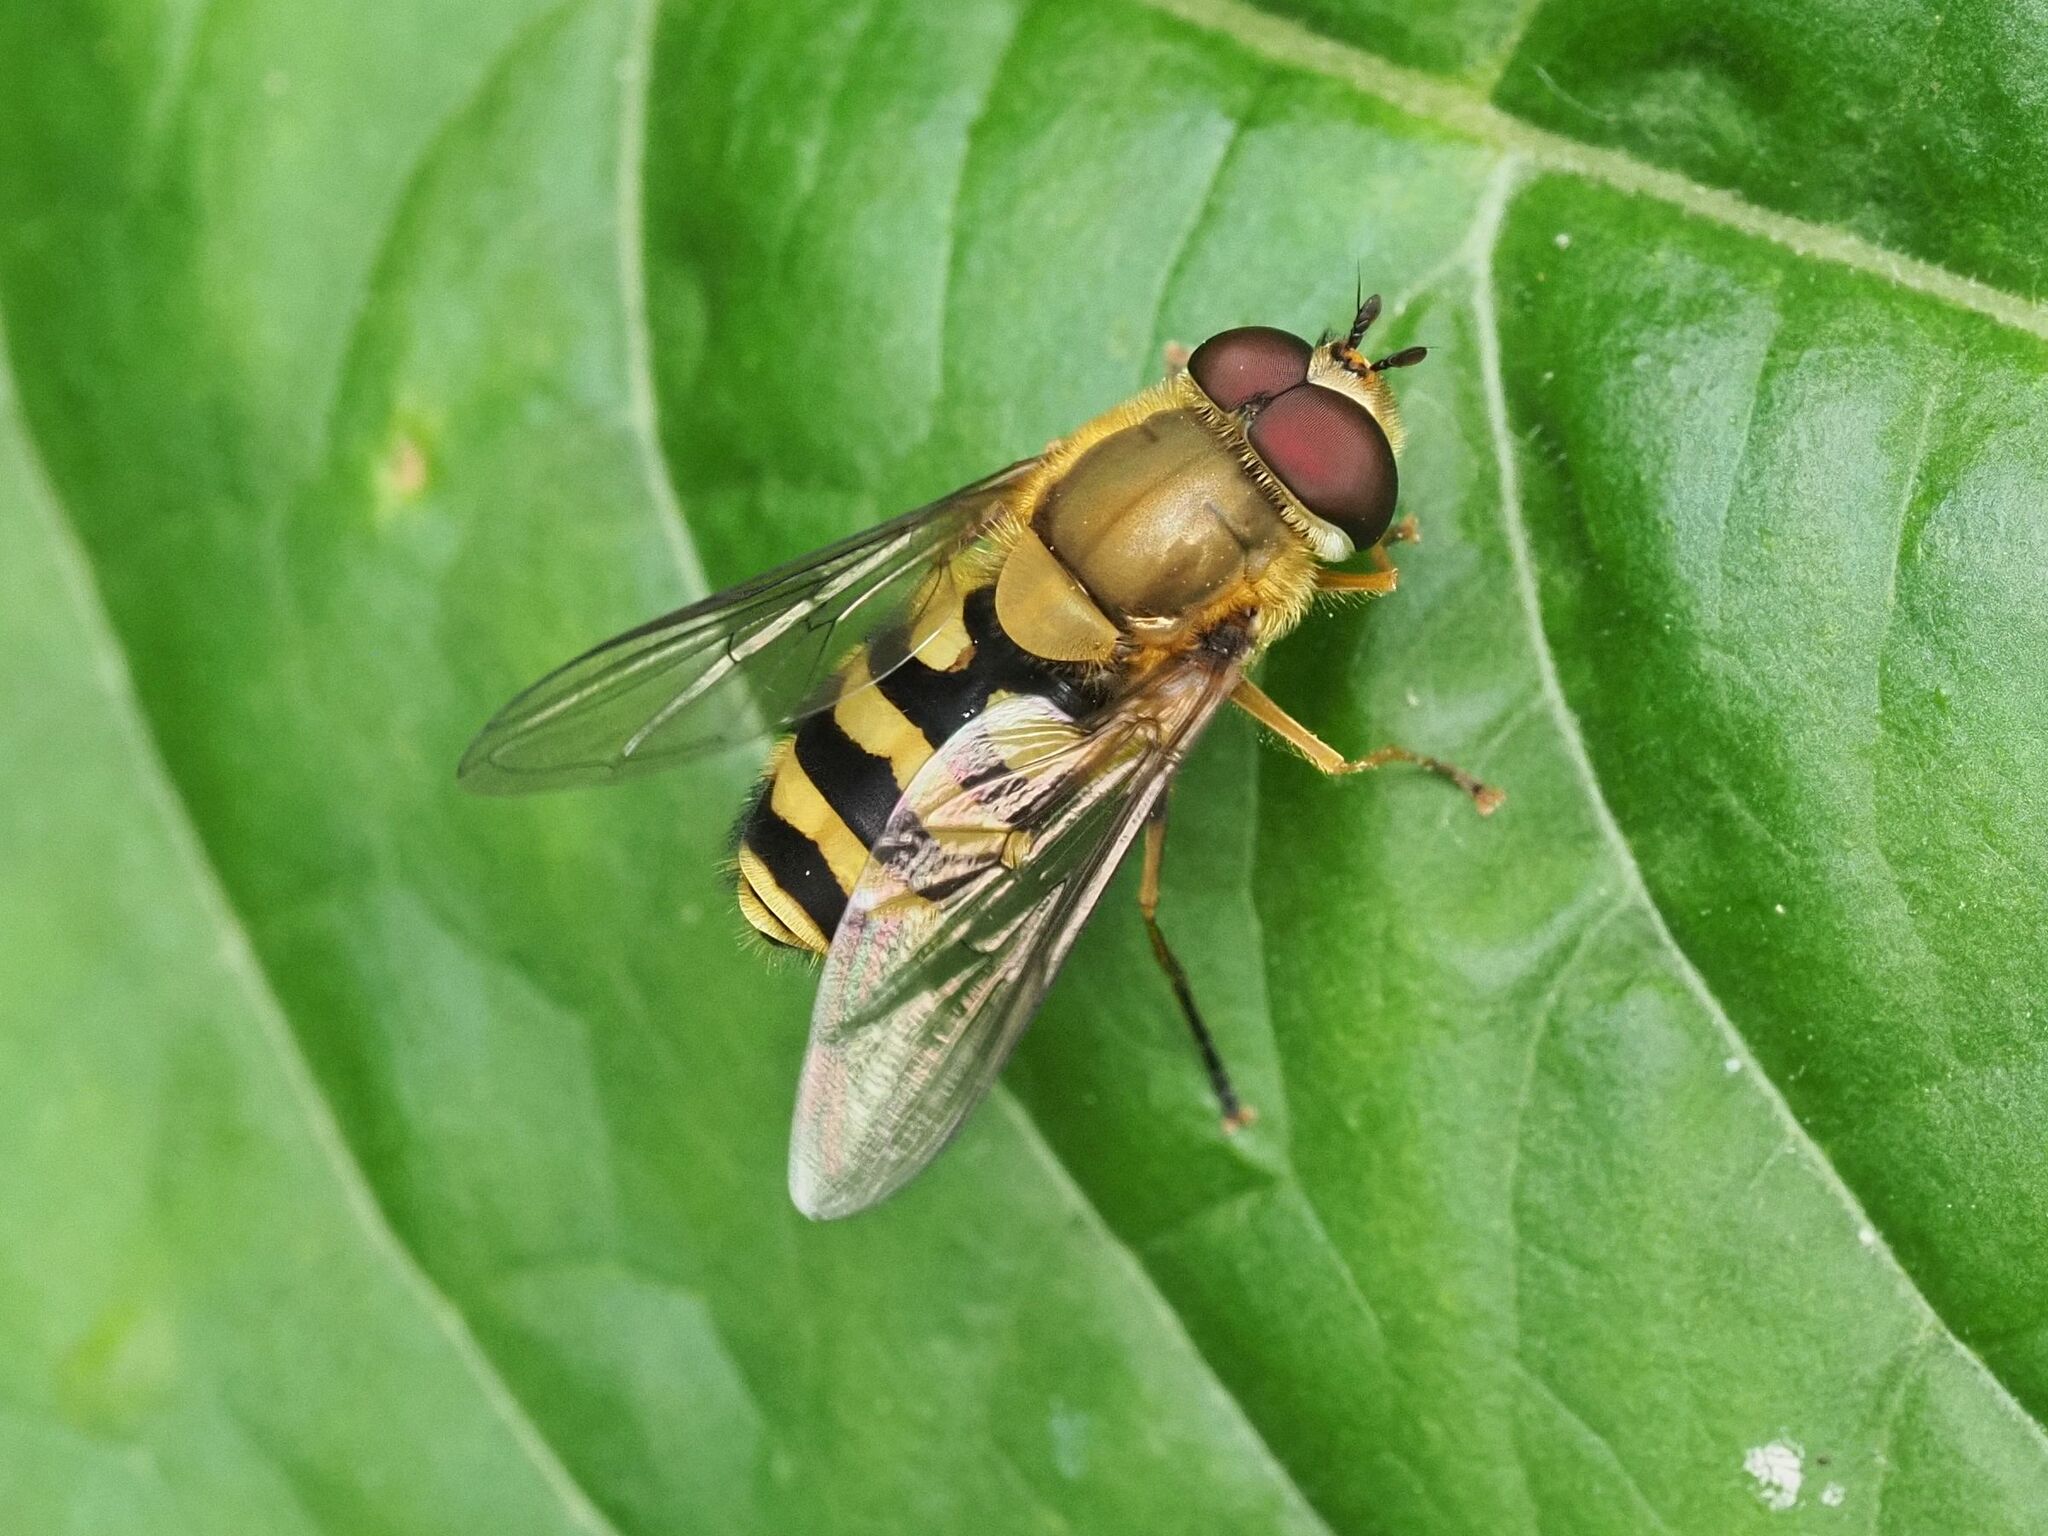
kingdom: Animalia
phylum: Arthropoda
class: Insecta
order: Diptera
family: Syrphidae
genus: Syrphus
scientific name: Syrphus
